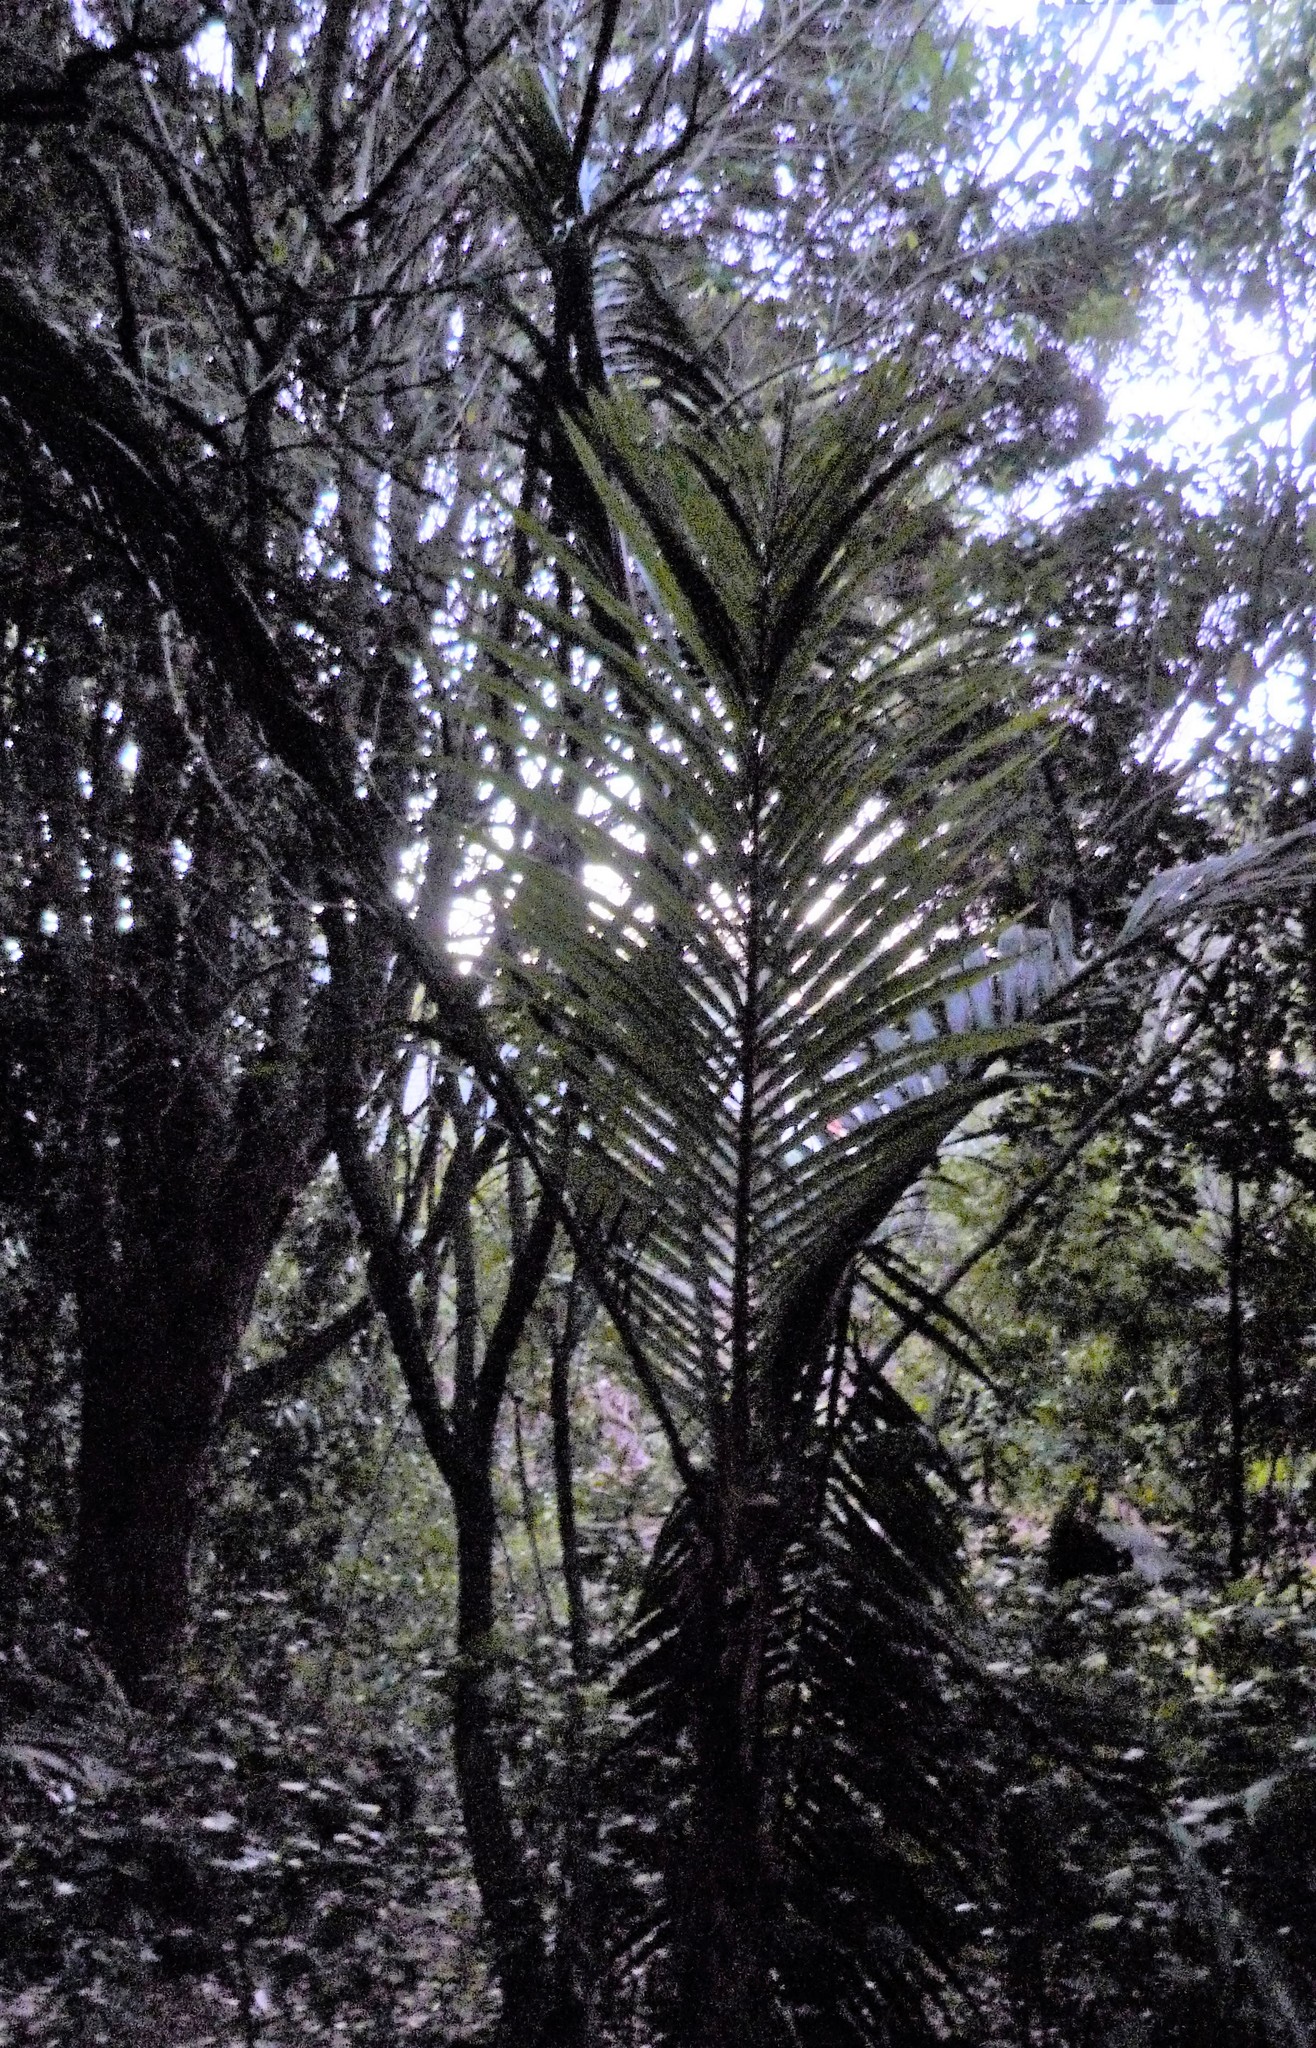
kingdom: Plantae
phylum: Tracheophyta
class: Liliopsida
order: Arecales
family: Arecaceae
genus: Rhopalostylis
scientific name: Rhopalostylis sapida
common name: Feather-duster palm
